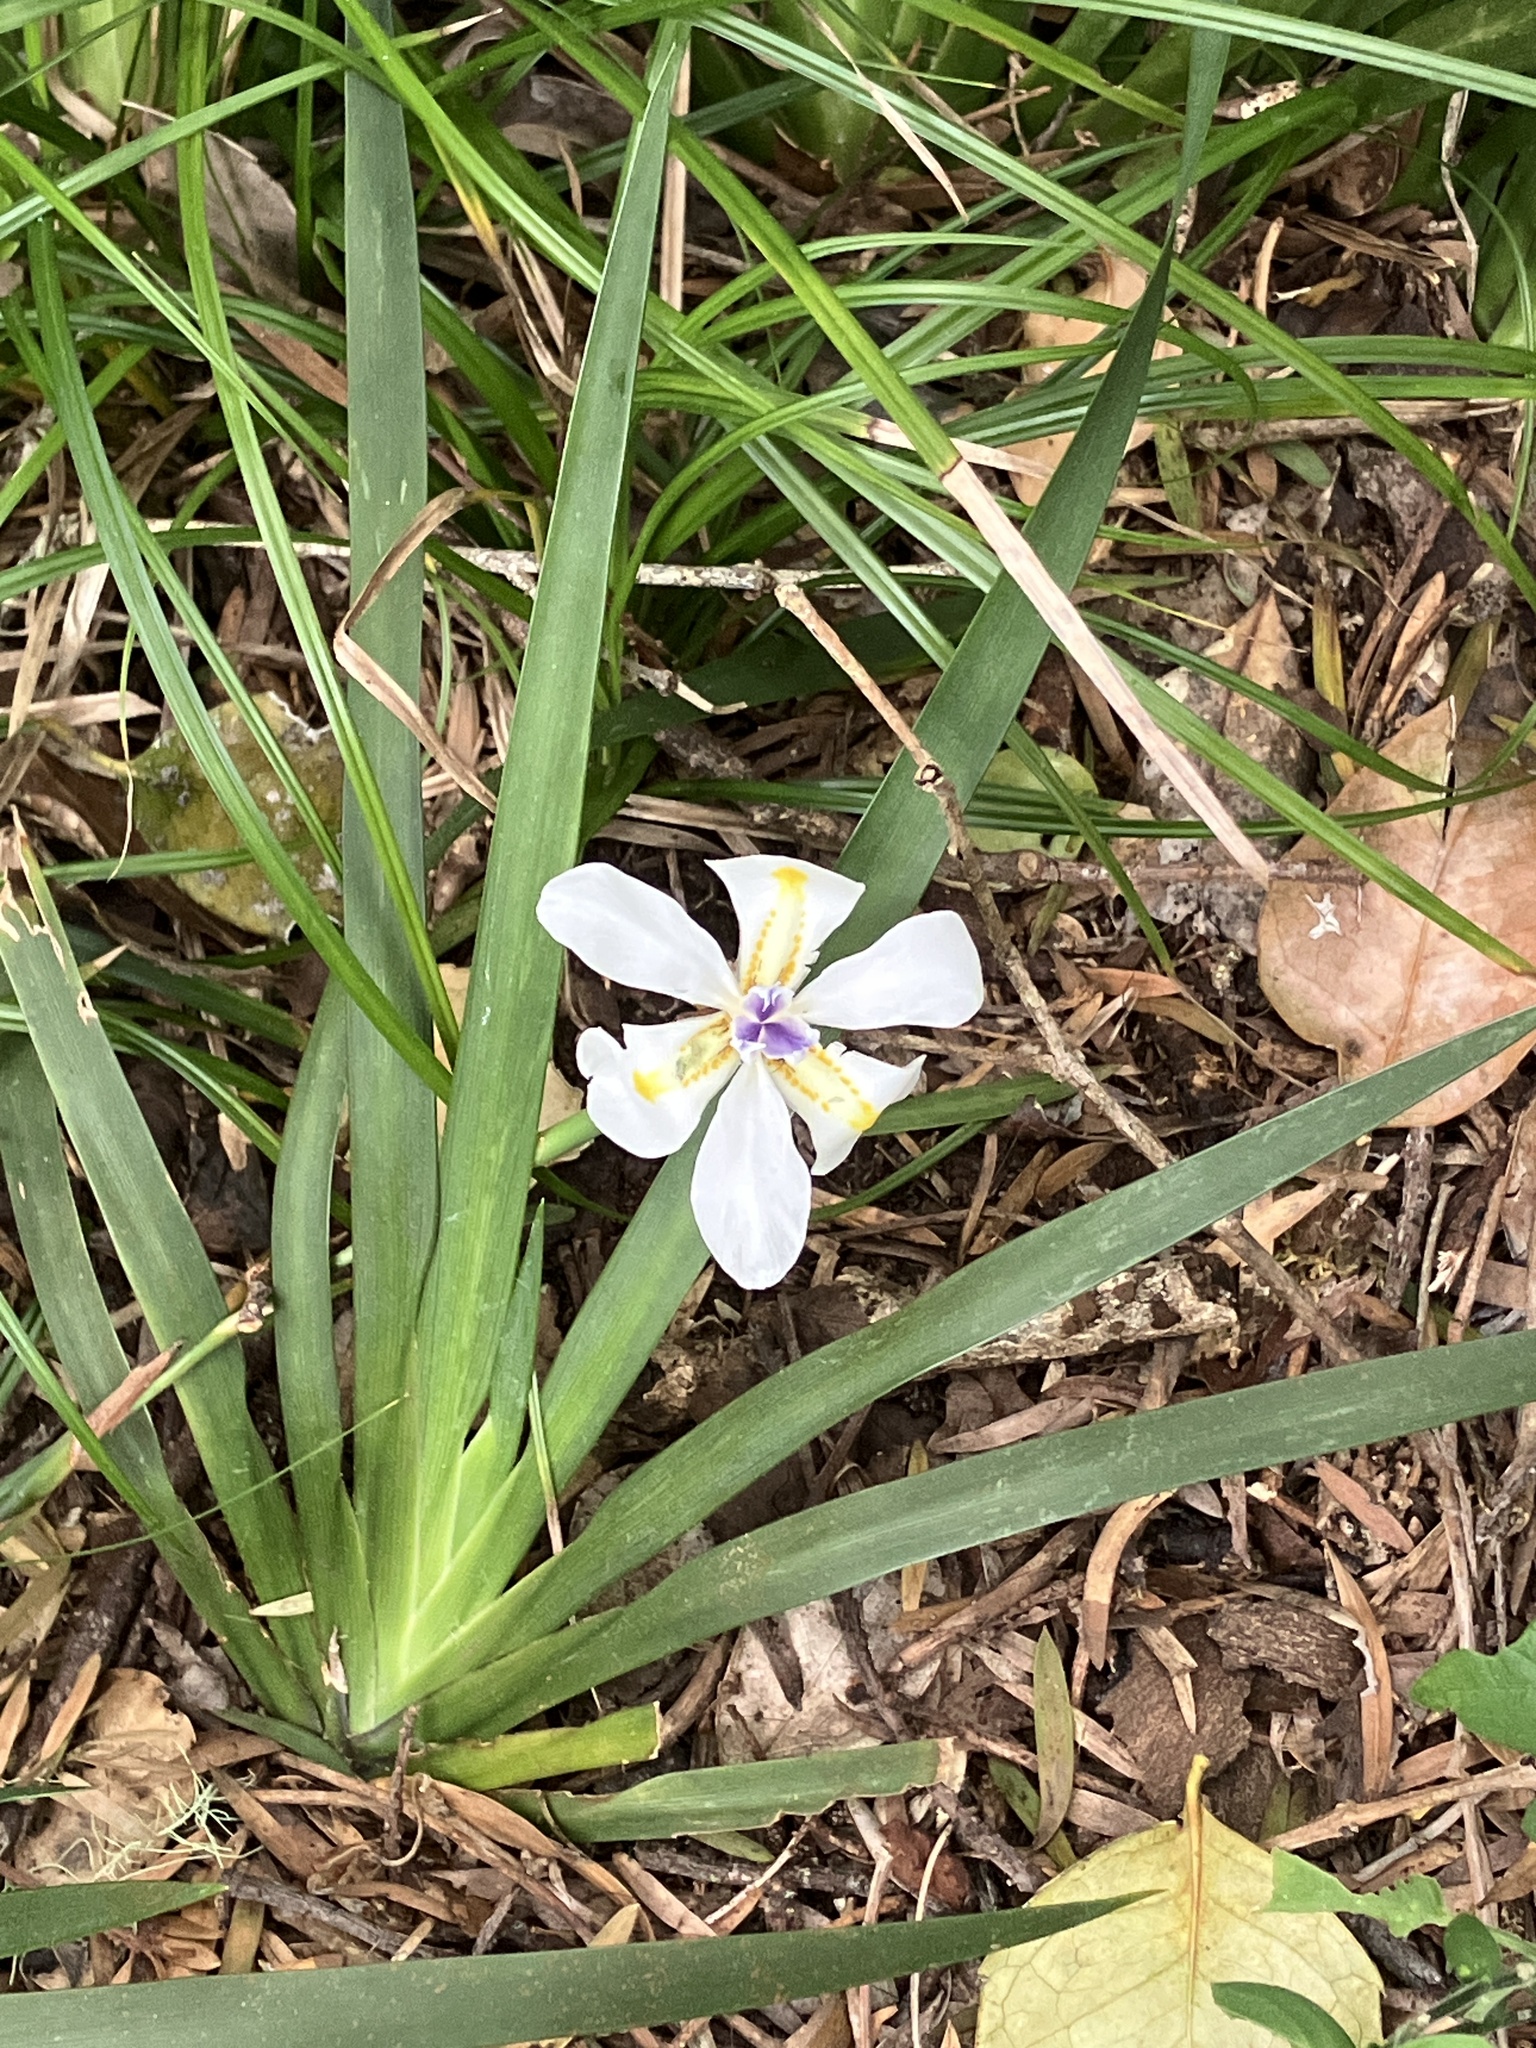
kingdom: Plantae
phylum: Tracheophyta
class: Liliopsida
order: Asparagales
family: Iridaceae
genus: Dietes
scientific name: Dietes iridioides
